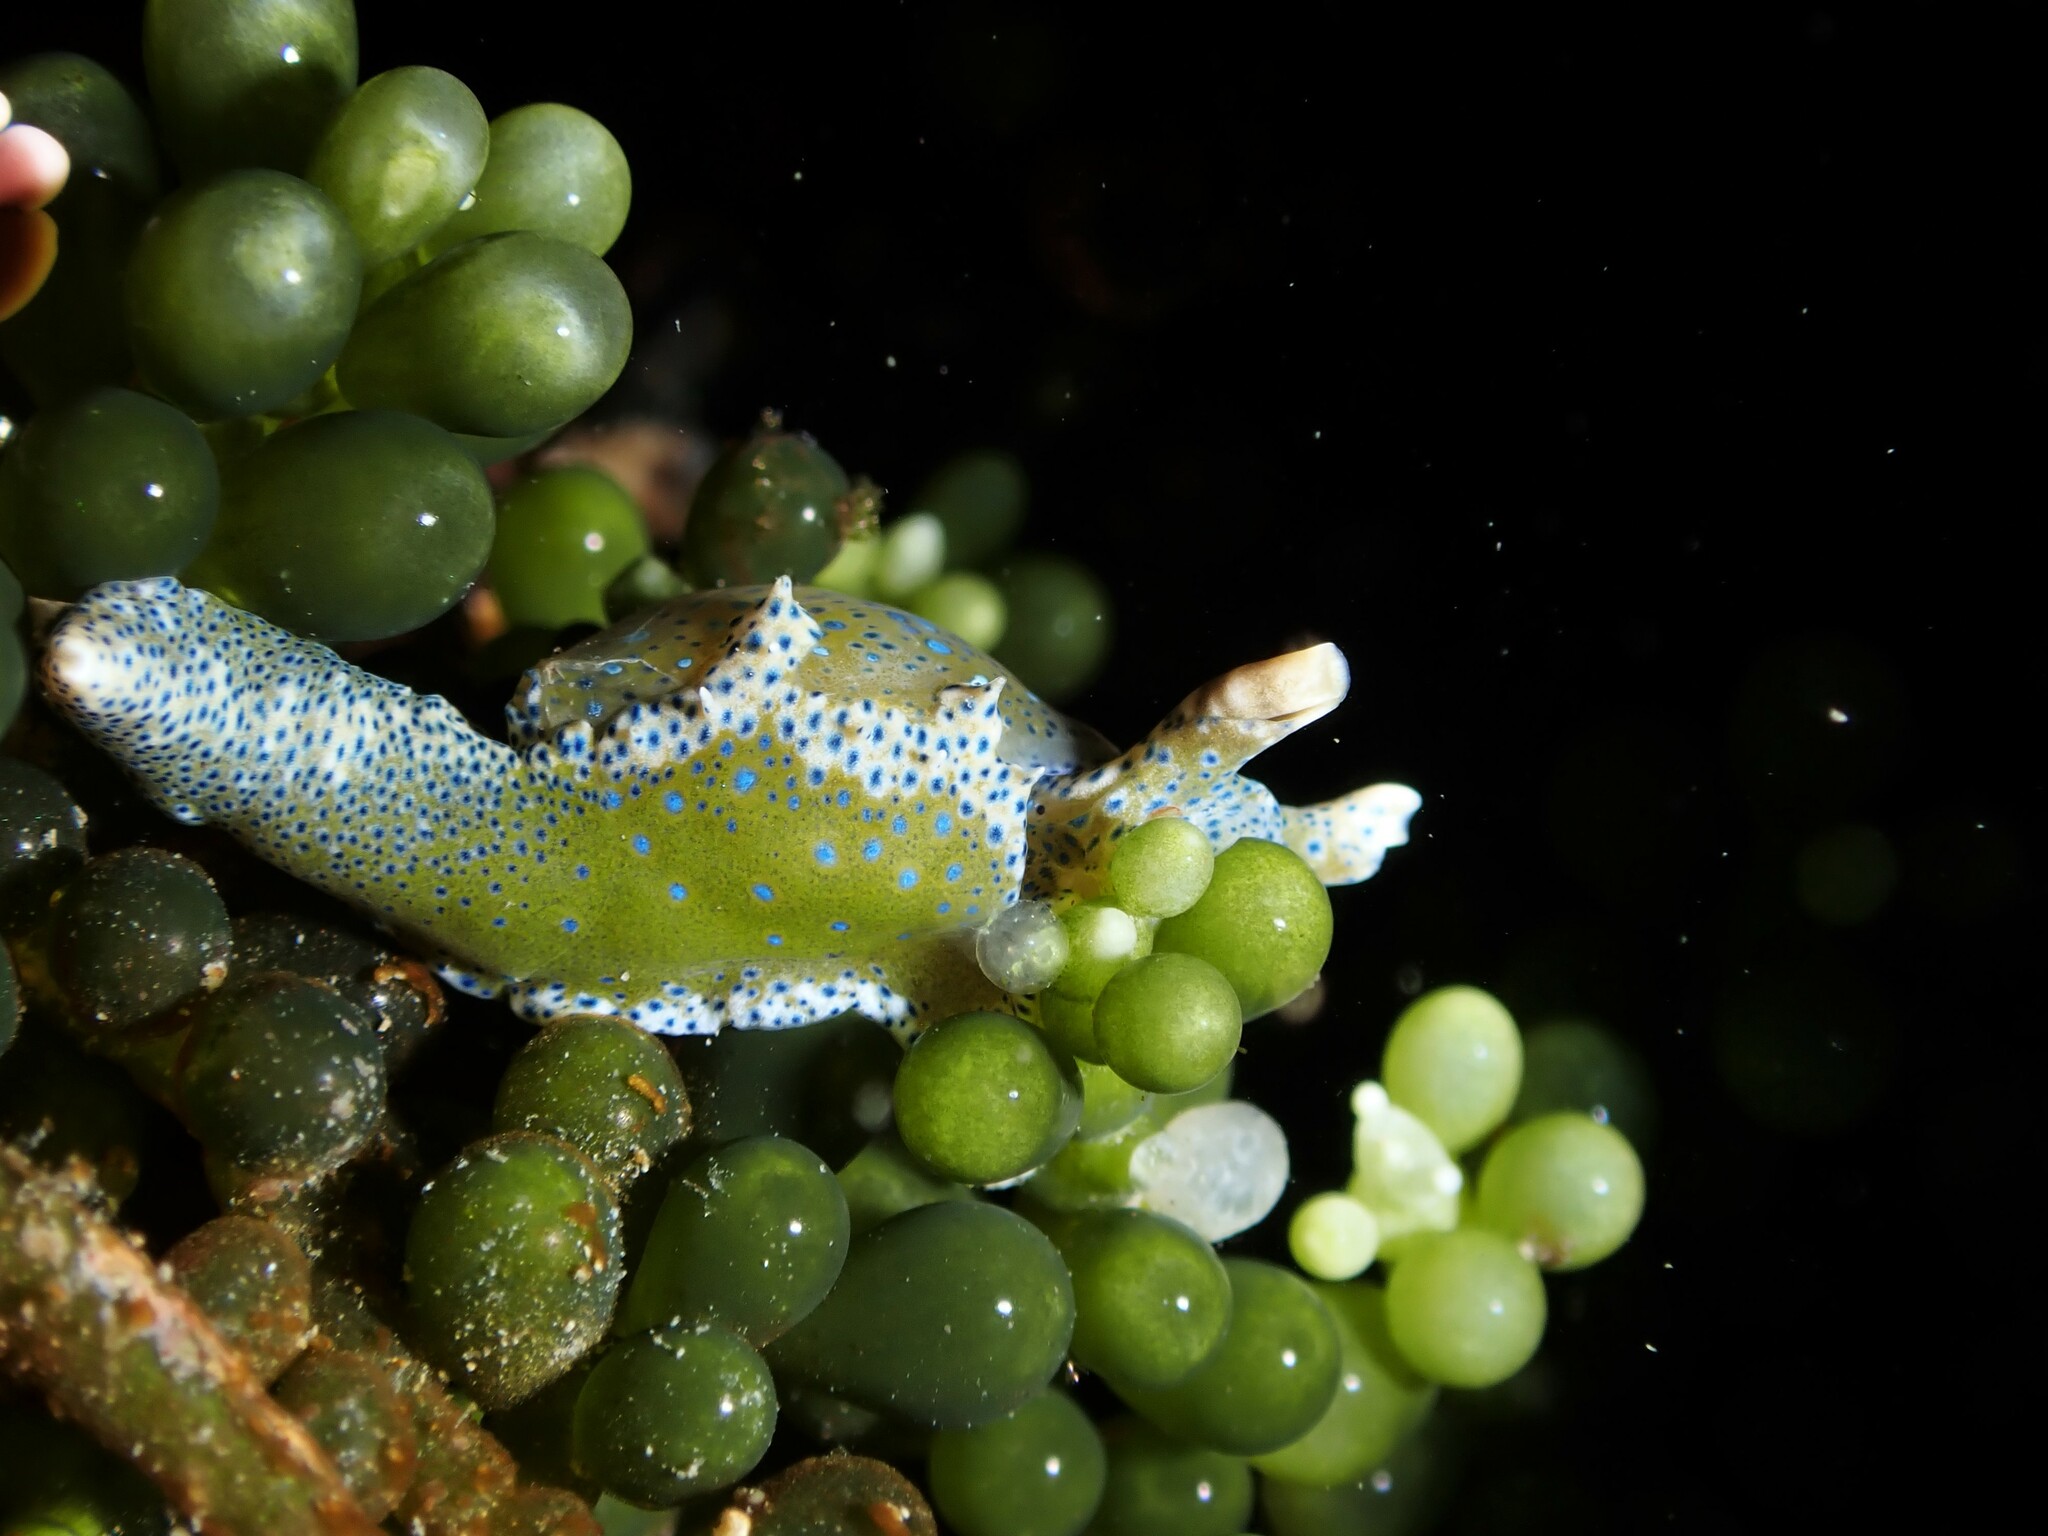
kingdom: Animalia
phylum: Mollusca
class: Gastropoda
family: Oxynoidae
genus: Oxynoe
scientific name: Oxynoe viridis
